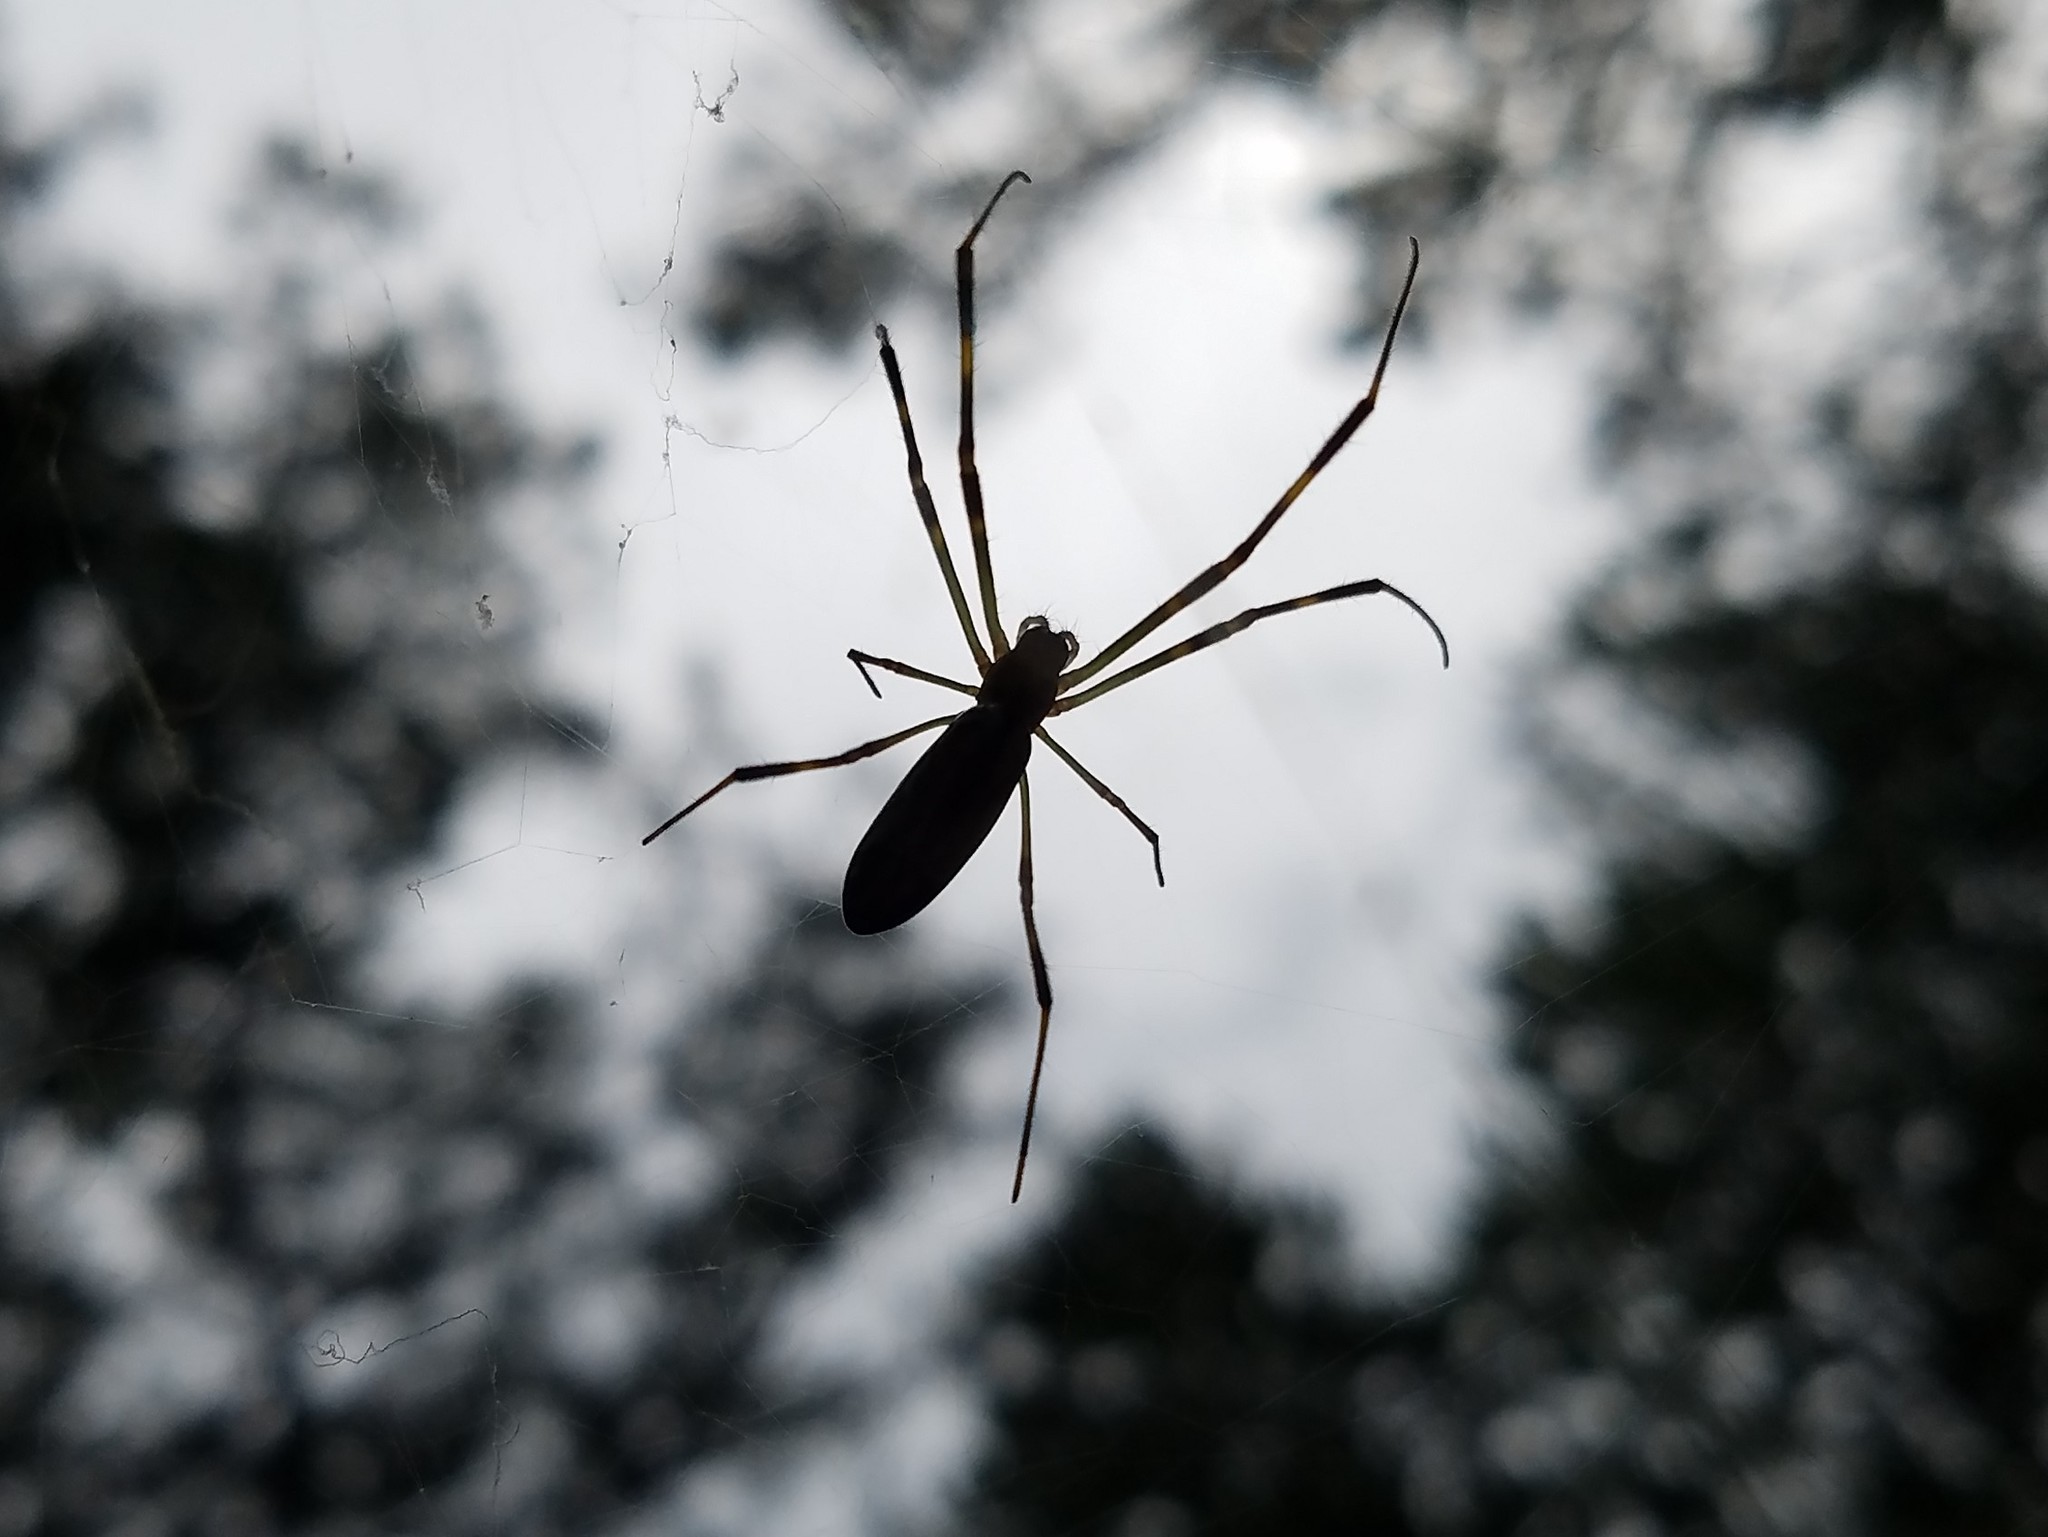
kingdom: Animalia
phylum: Arthropoda
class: Arachnida
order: Araneae
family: Araneidae
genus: Trichonephila
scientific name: Trichonephila clavata
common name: Jorō spider
